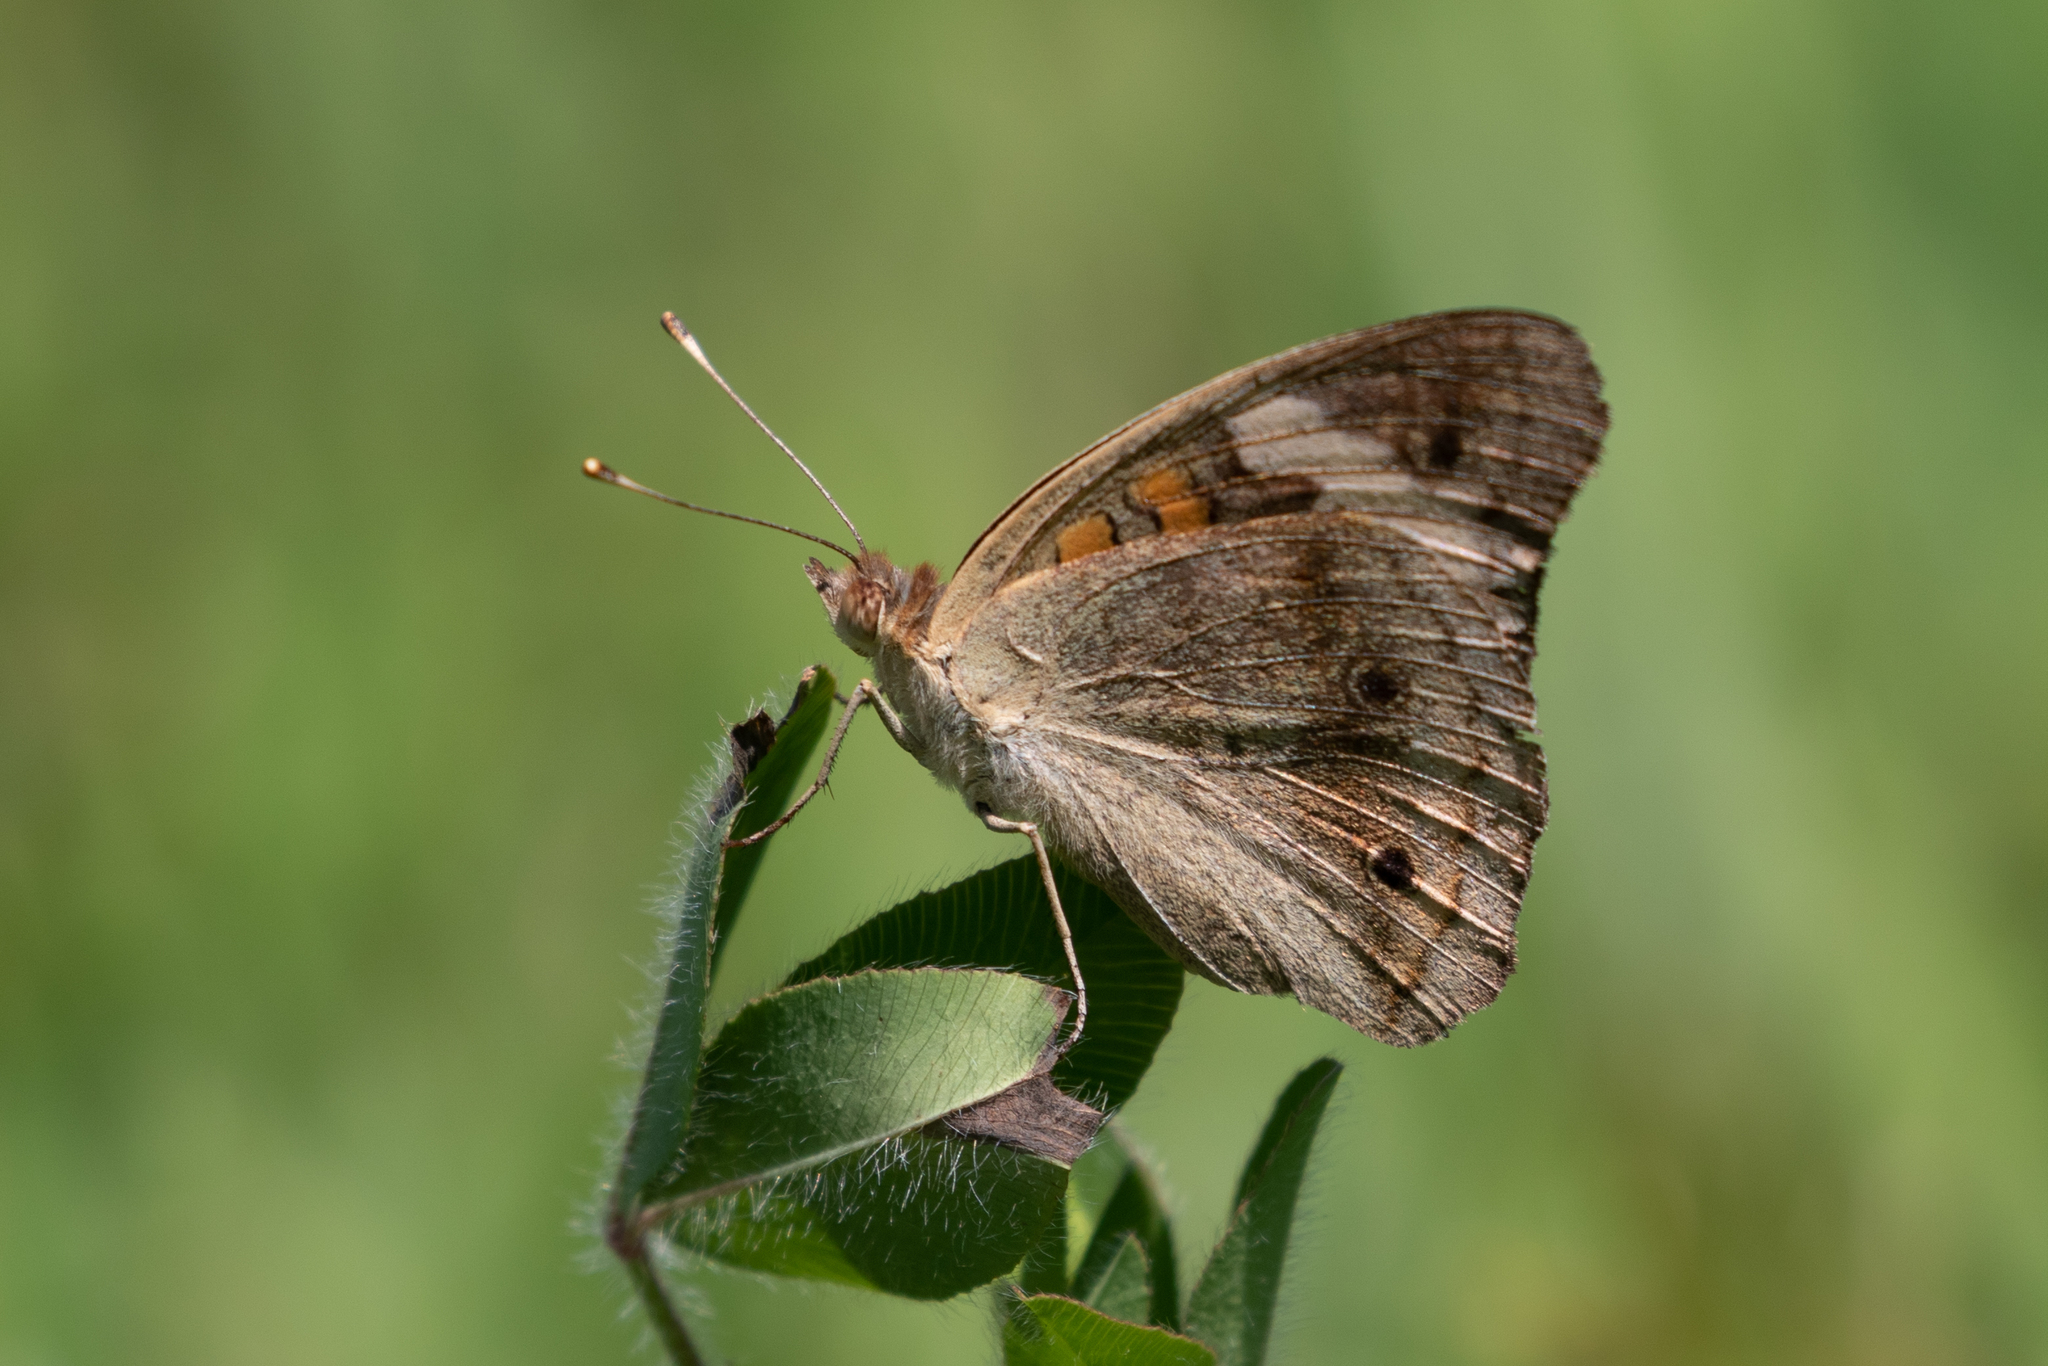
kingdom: Animalia
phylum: Arthropoda
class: Insecta
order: Lepidoptera
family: Nymphalidae
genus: Junonia
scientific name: Junonia coenia
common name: Common buckeye
